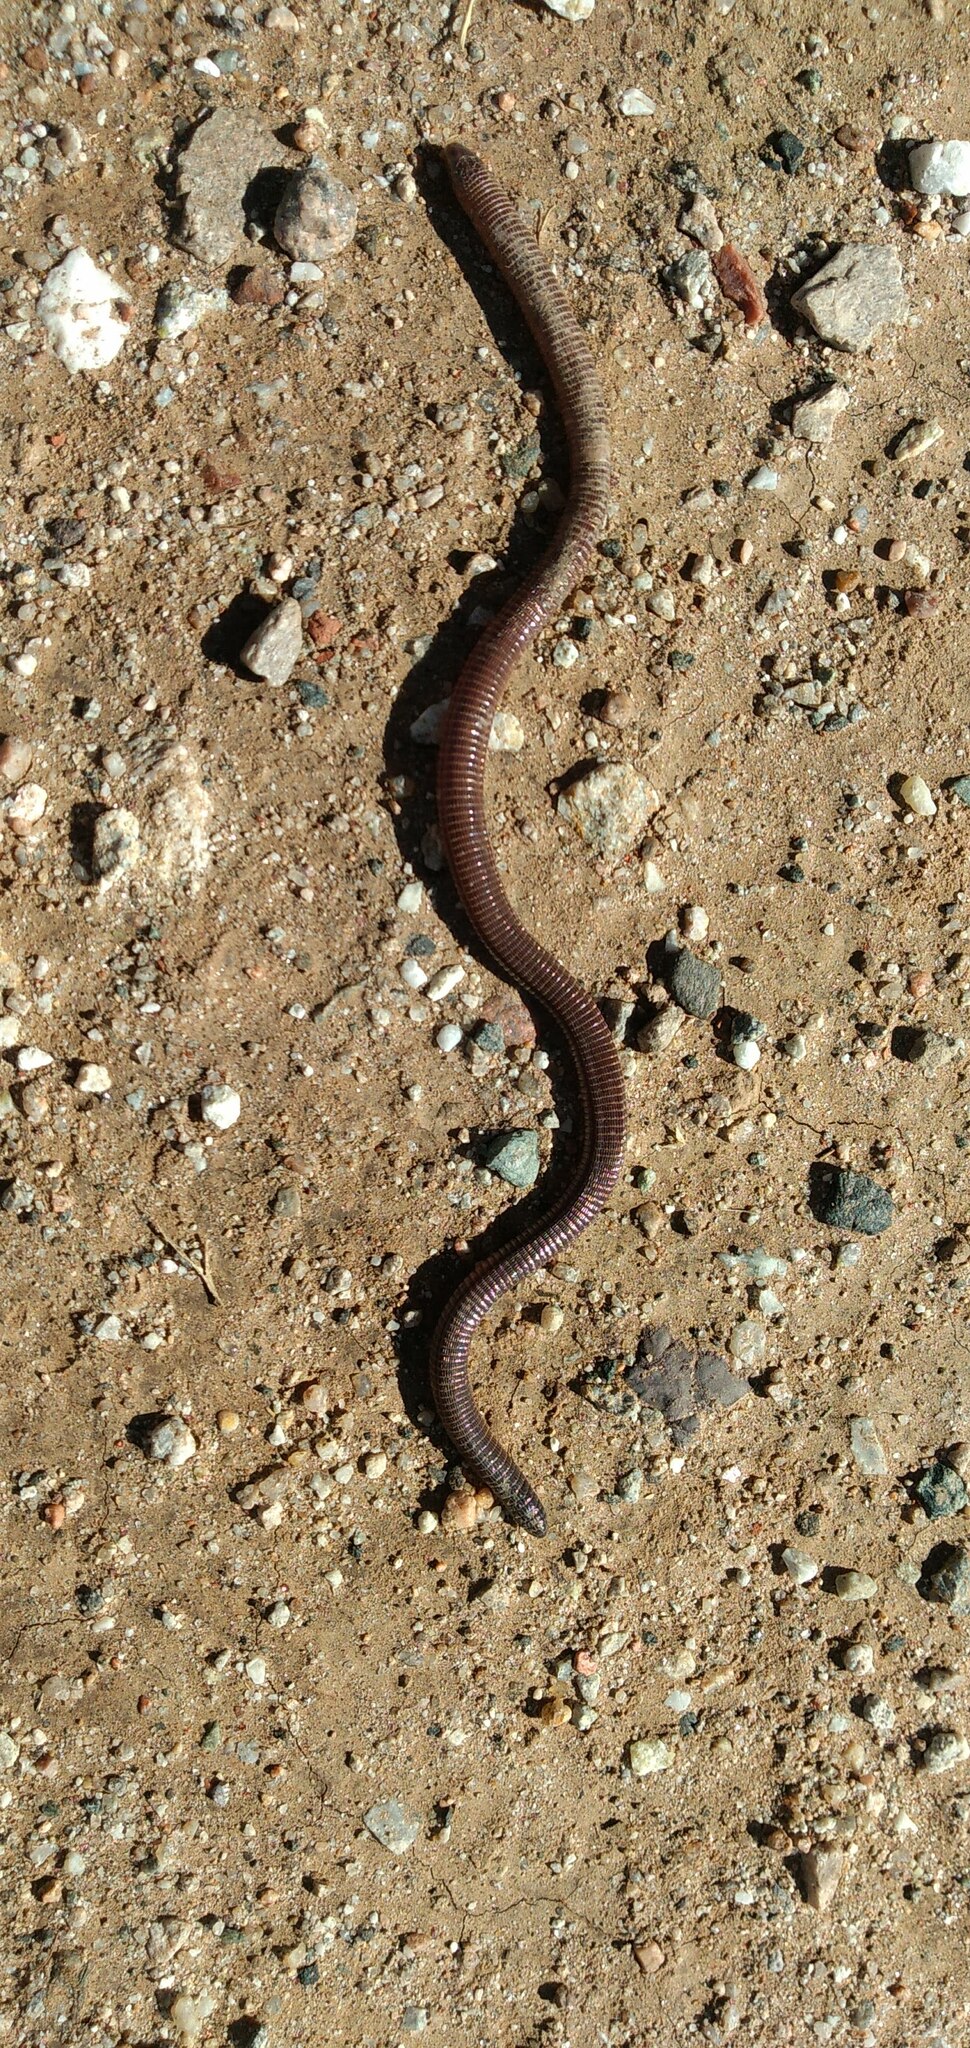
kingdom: Animalia
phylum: Chordata
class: Squamata
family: Amphisbaenidae
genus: Amphisbaena
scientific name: Amphisbaena darwinii
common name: Darwin's ringed worm lizard
